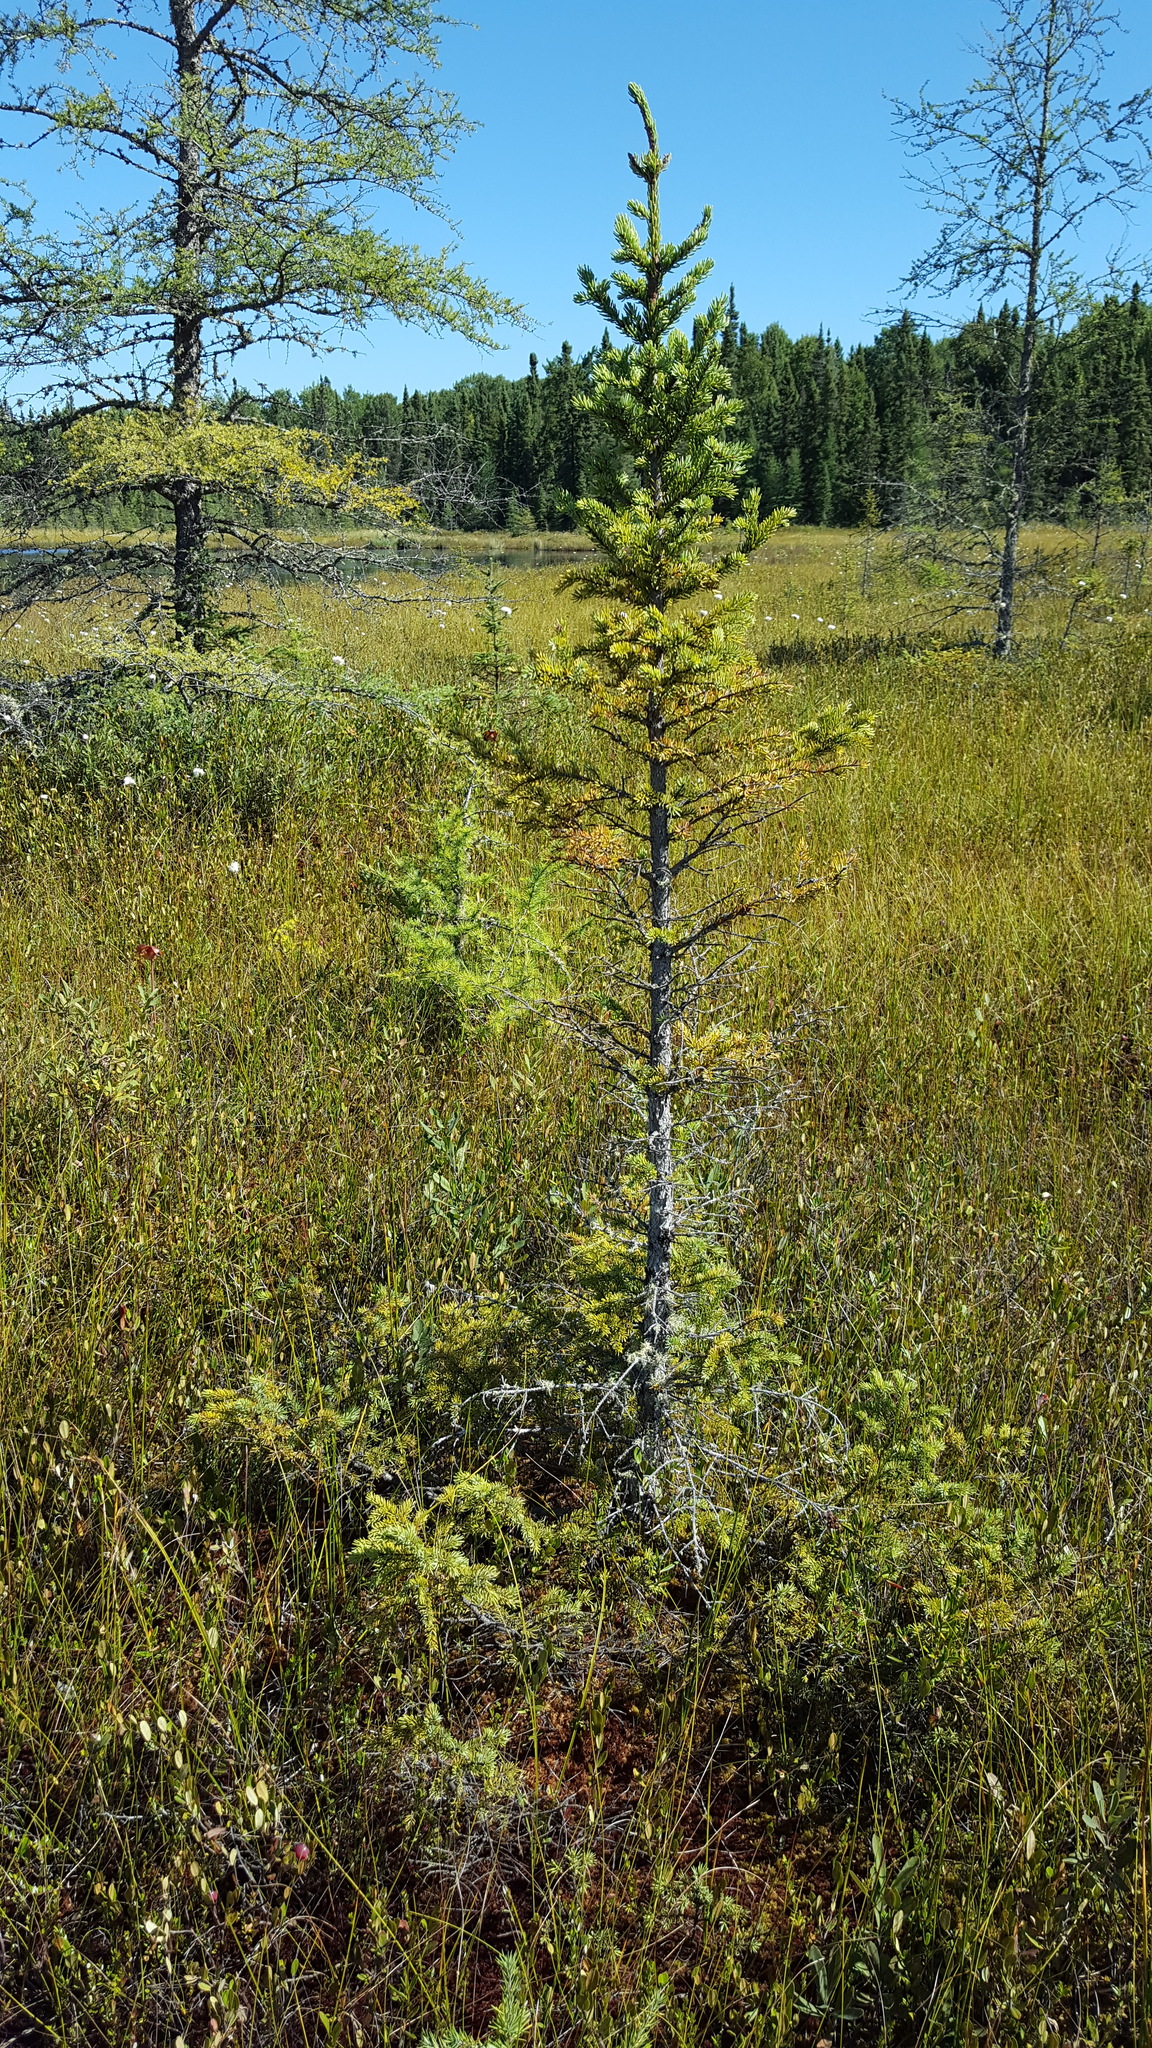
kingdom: Plantae
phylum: Tracheophyta
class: Pinopsida
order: Pinales
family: Pinaceae
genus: Picea
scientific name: Picea mariana
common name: Black spruce
